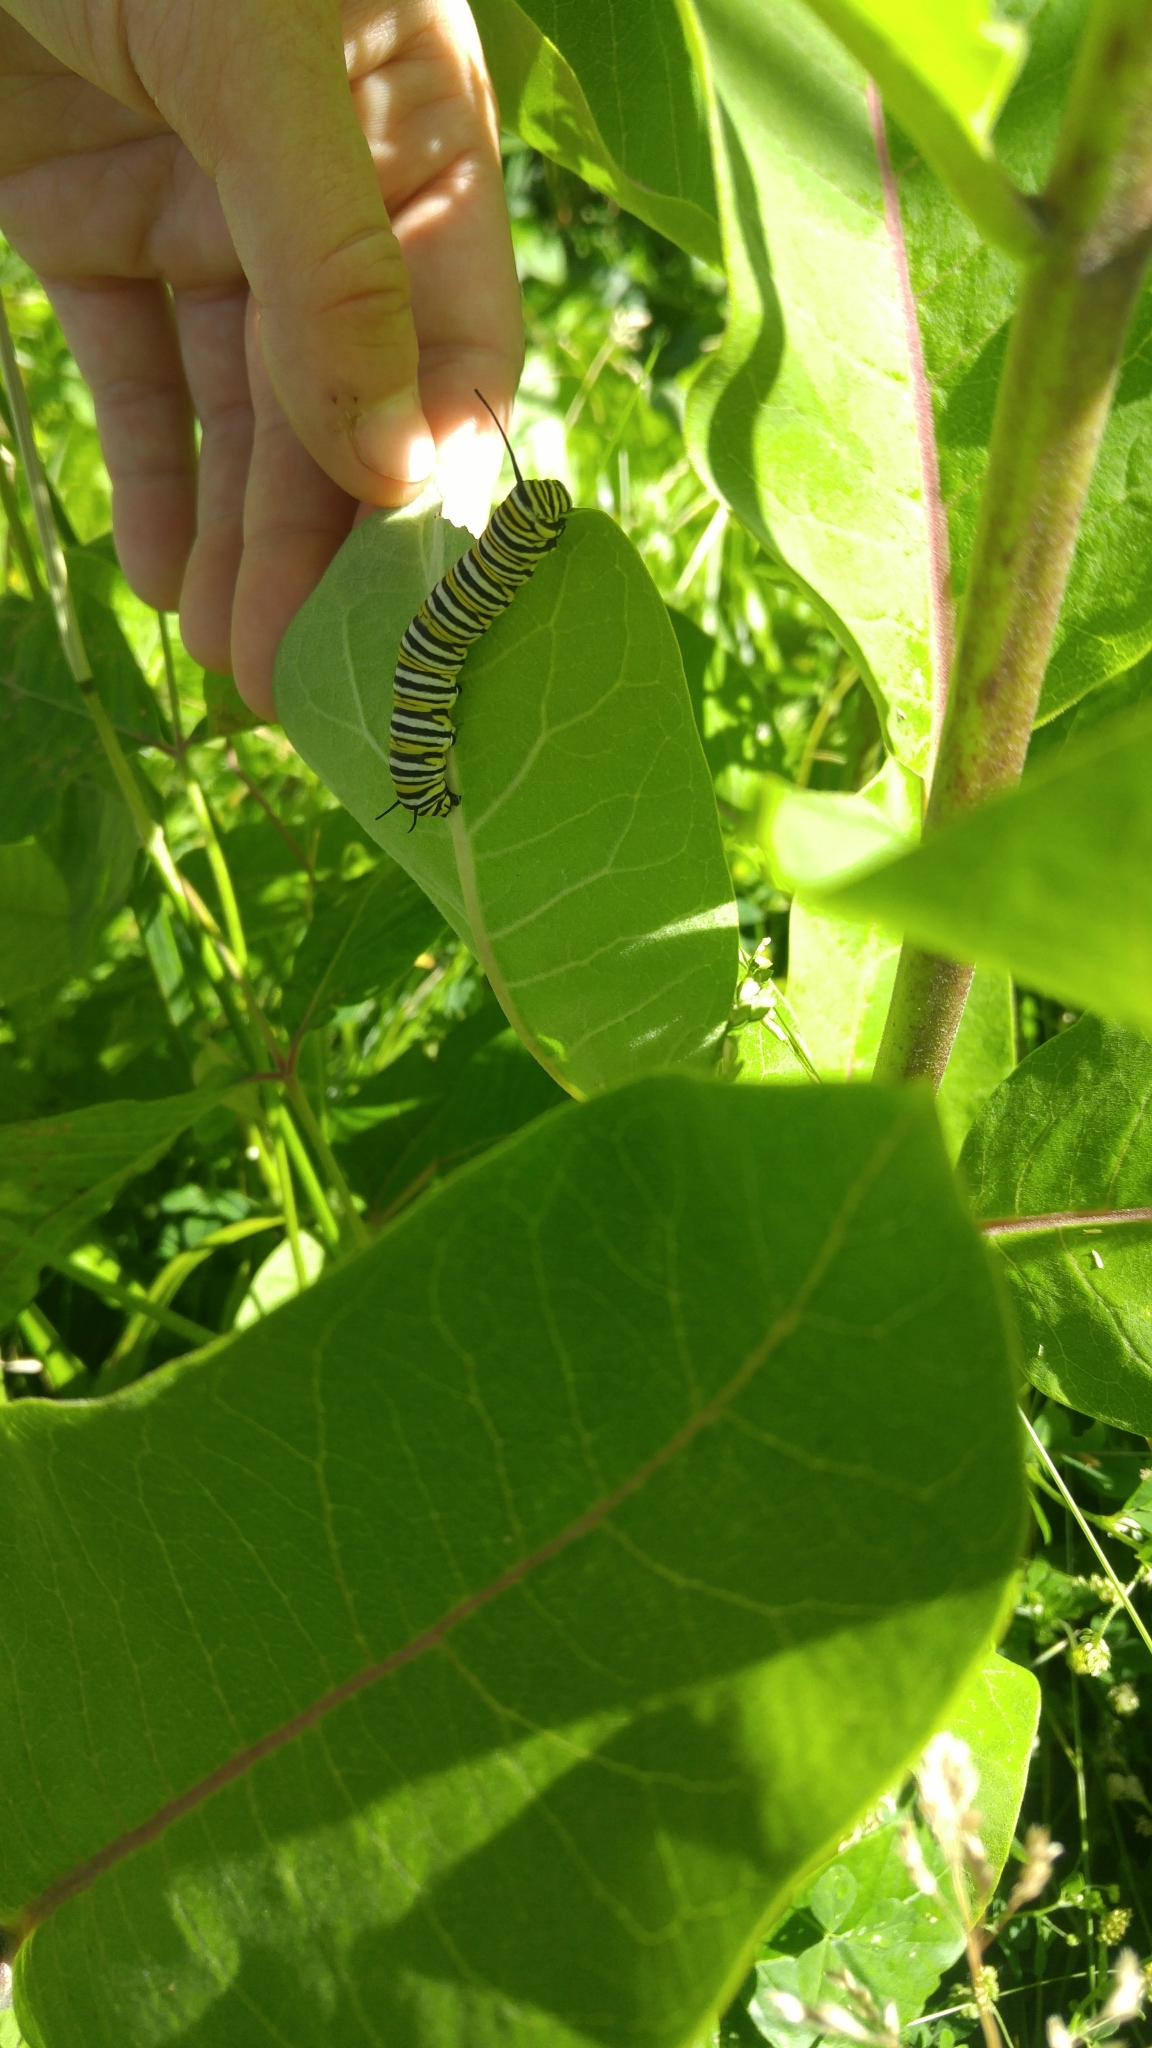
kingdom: Animalia
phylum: Arthropoda
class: Insecta
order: Lepidoptera
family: Nymphalidae
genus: Danaus
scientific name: Danaus plexippus
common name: Monarch
